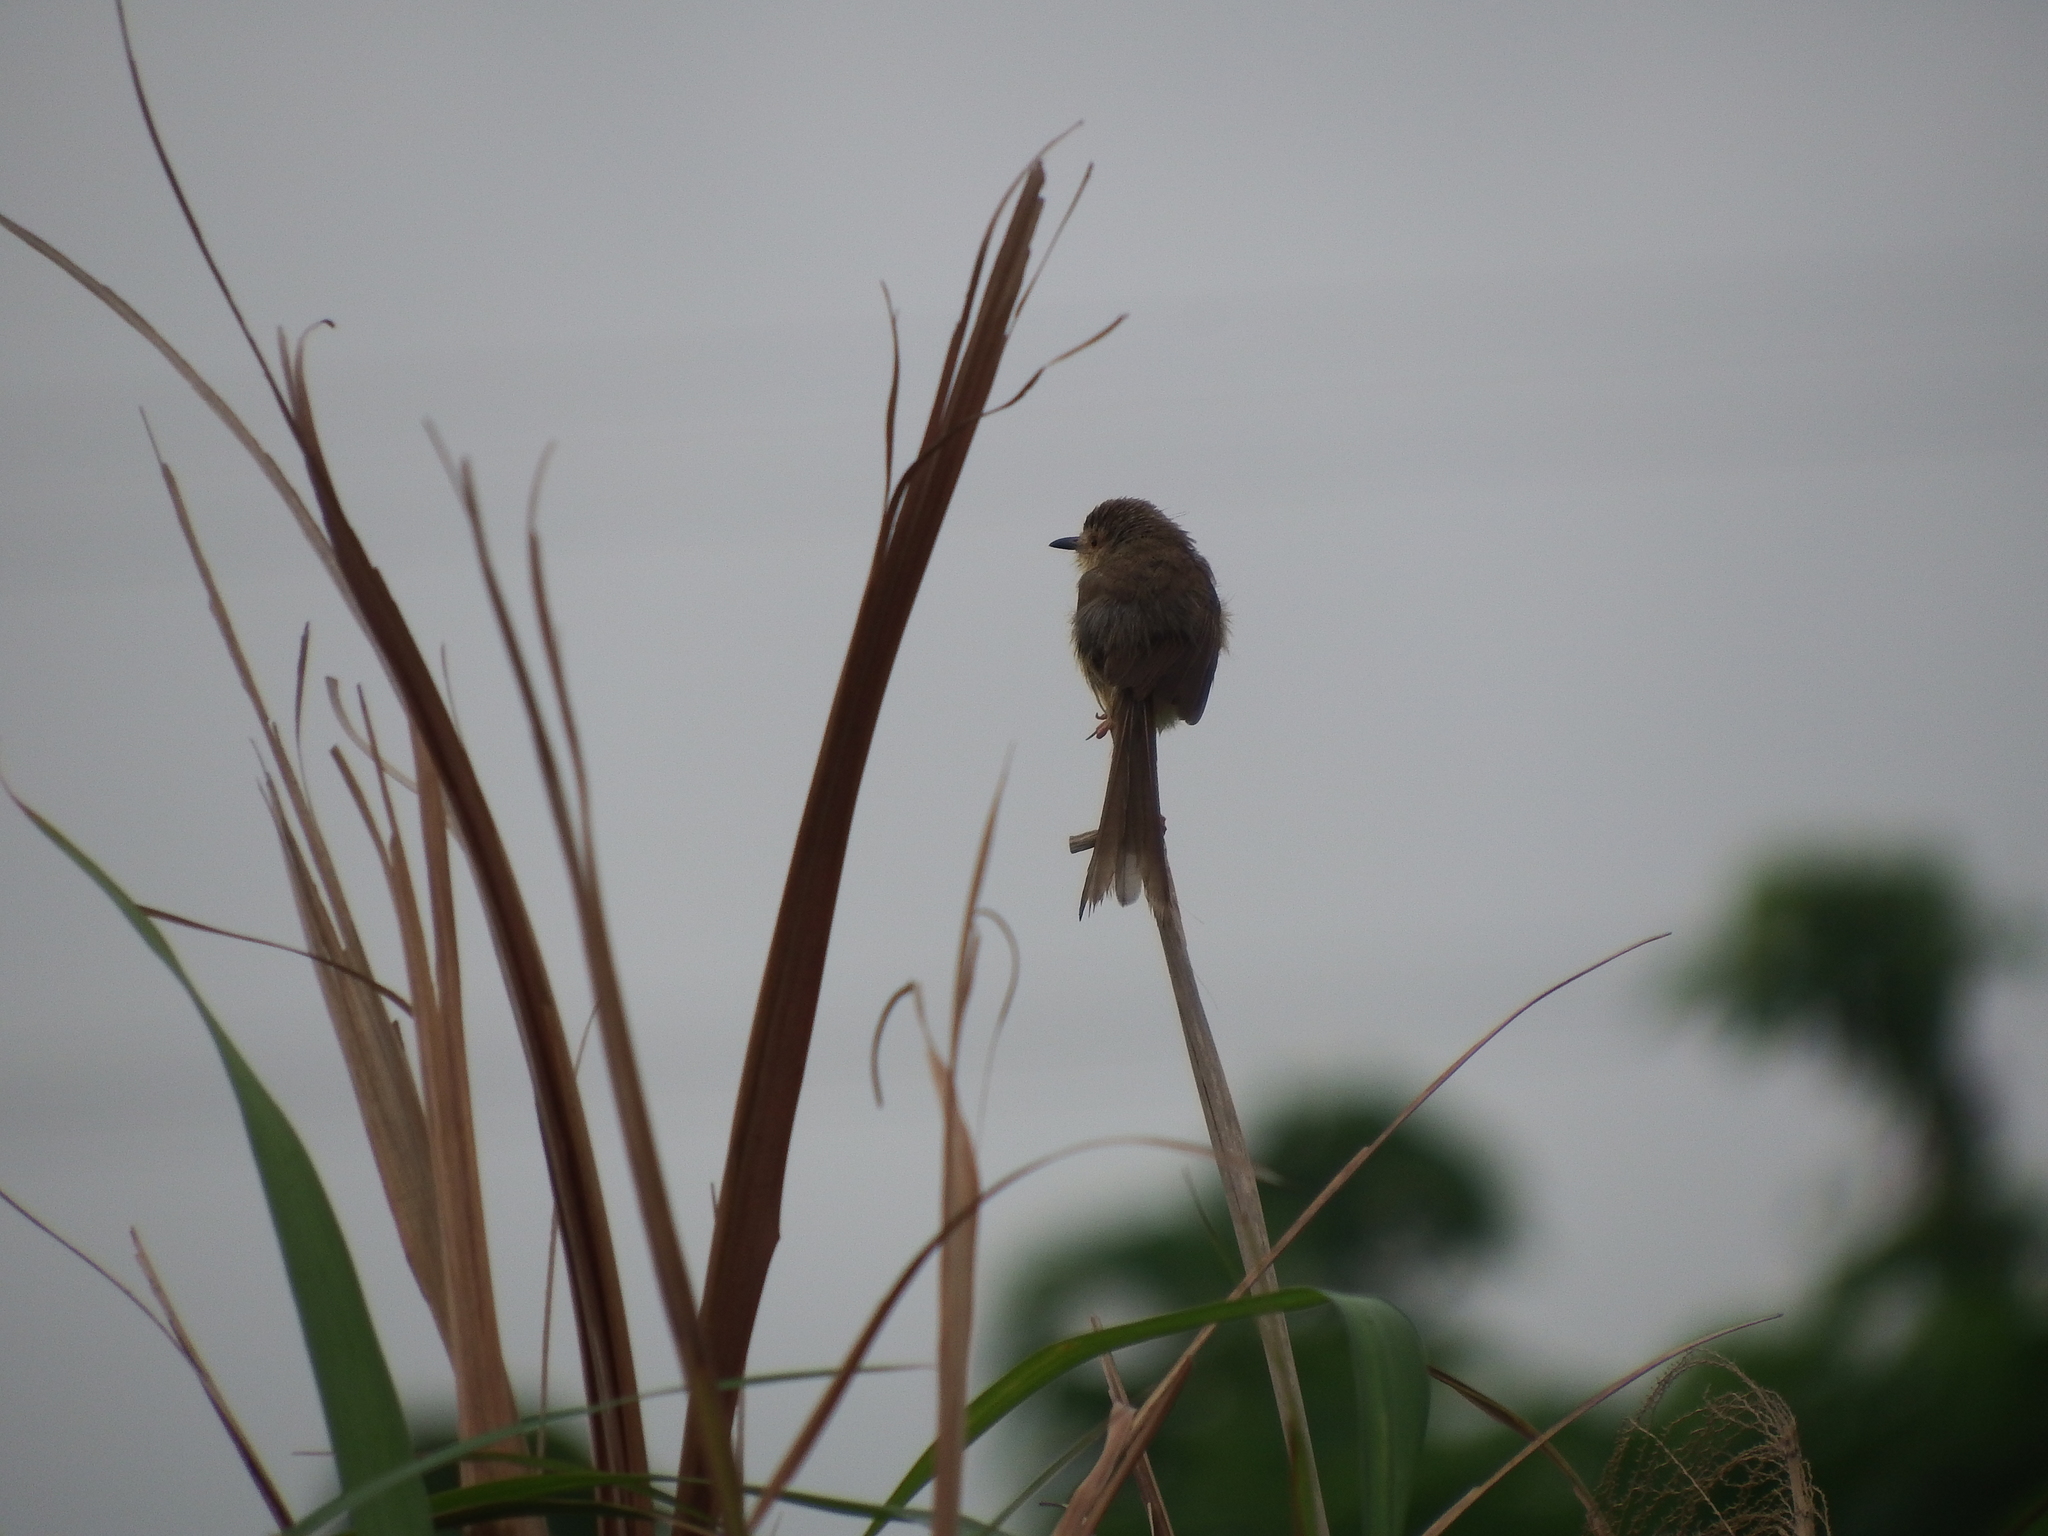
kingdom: Animalia
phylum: Chordata
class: Aves
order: Passeriformes
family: Cisticolidae
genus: Prinia
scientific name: Prinia inornata
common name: Plain prinia
